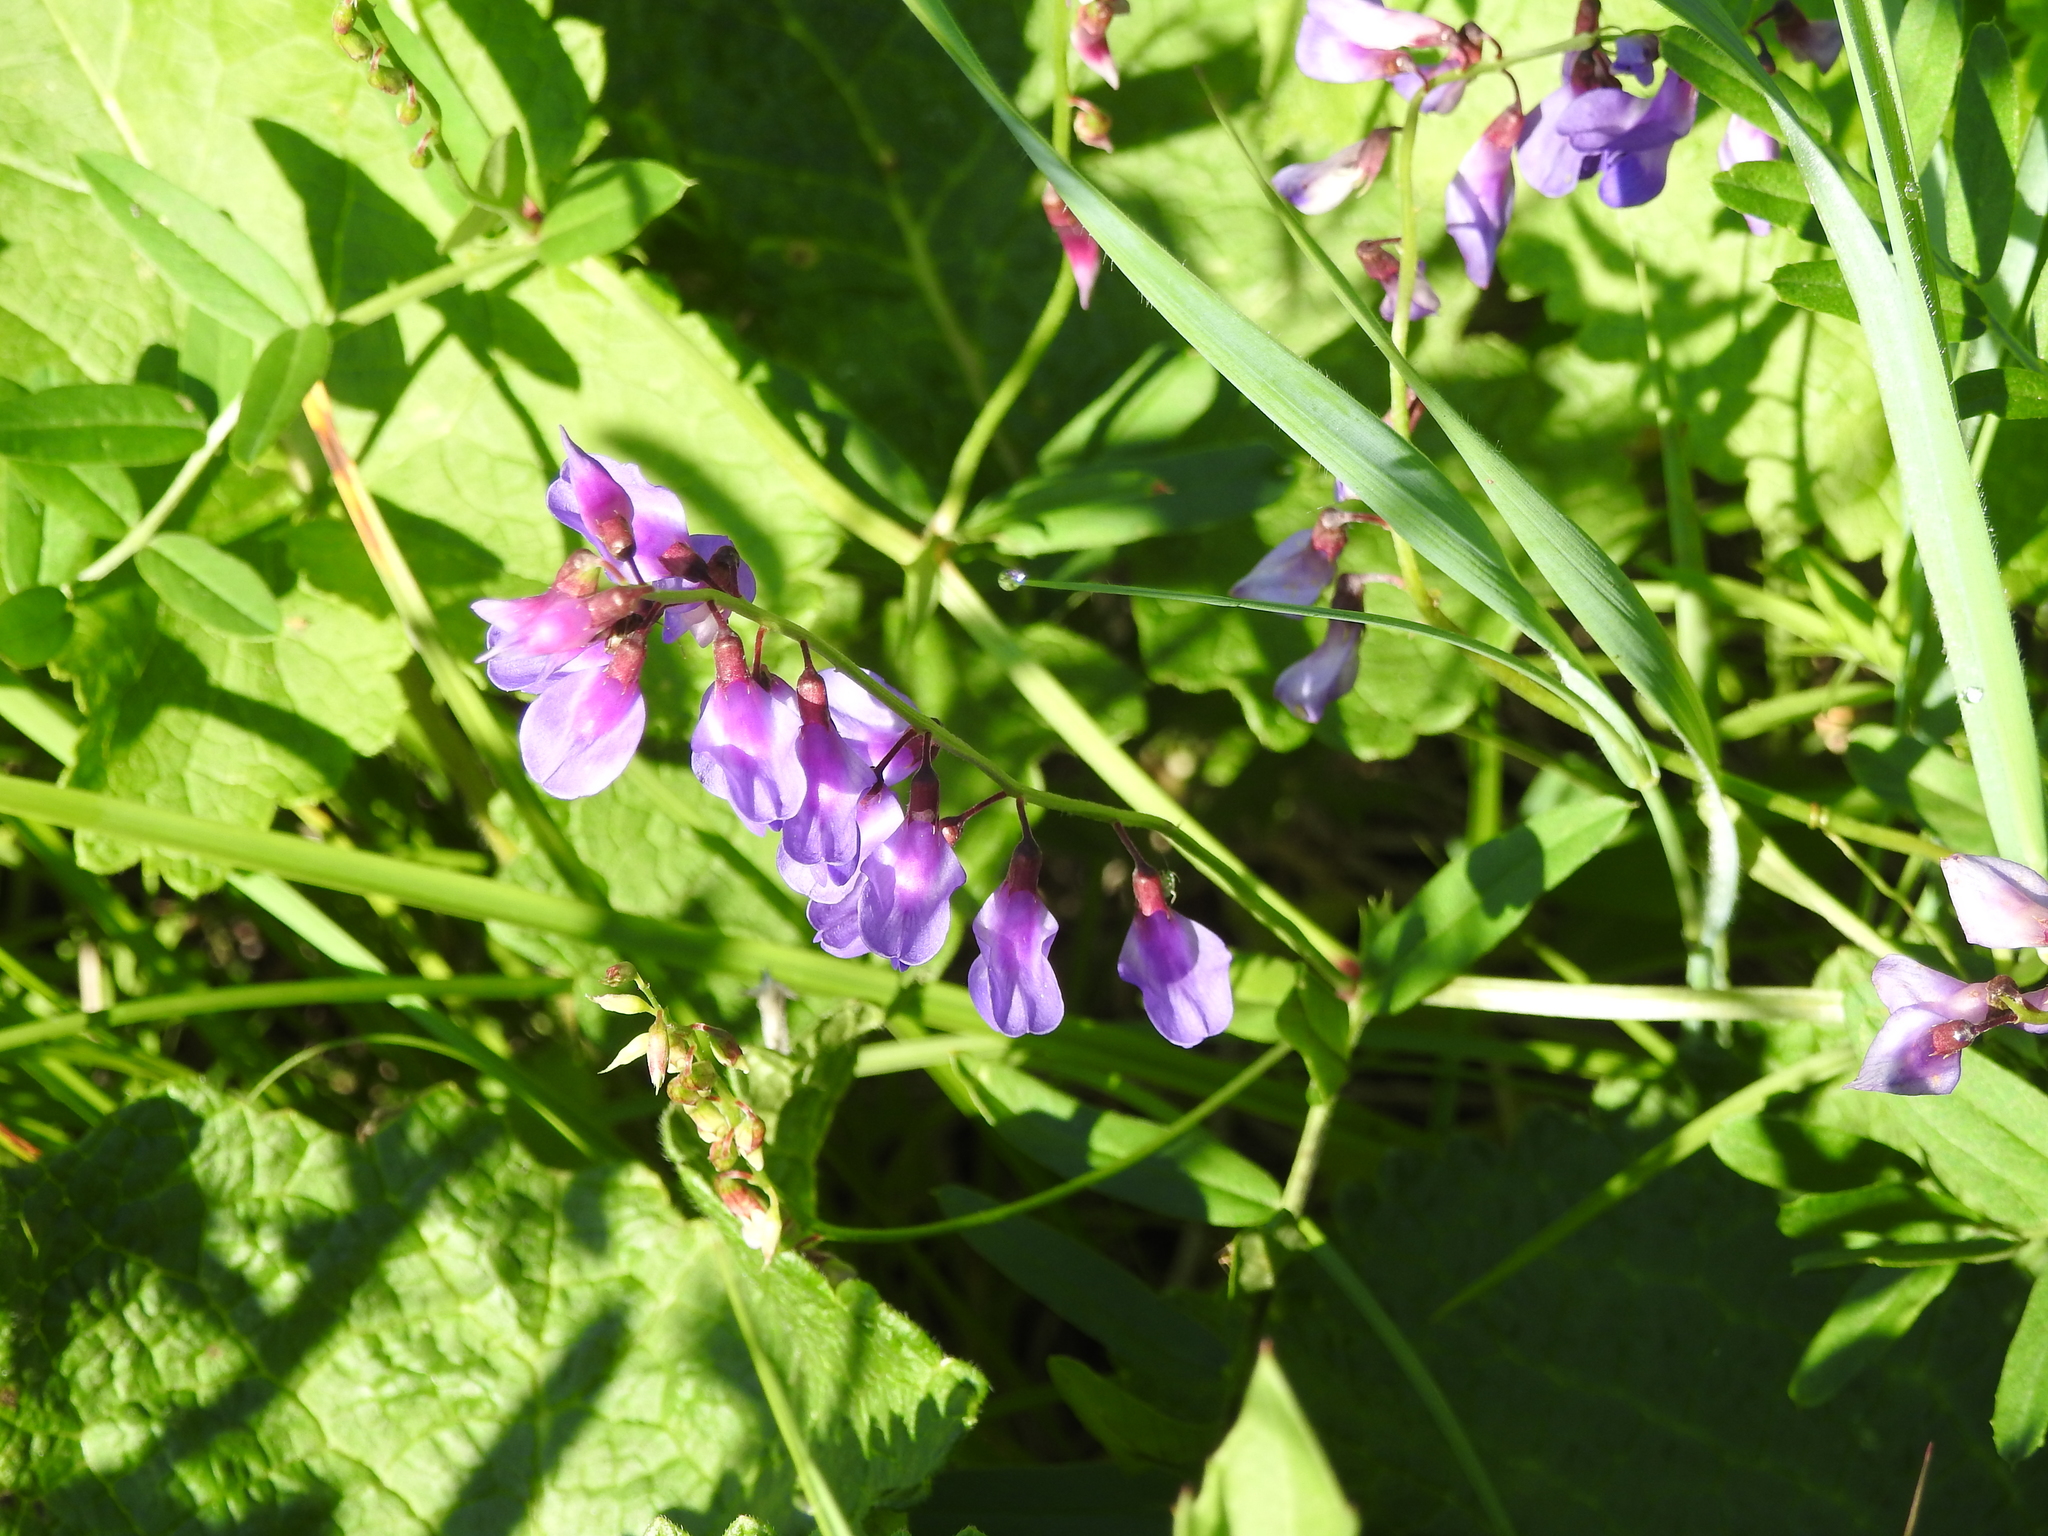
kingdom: Plantae
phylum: Tracheophyta
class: Magnoliopsida
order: Fabales
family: Fabaceae
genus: Vicia
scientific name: Vicia amoena
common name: Cheder ebs
